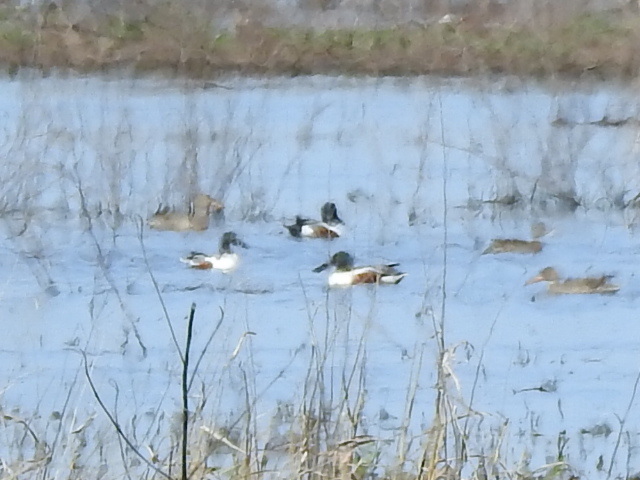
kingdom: Animalia
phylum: Chordata
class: Aves
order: Anseriformes
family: Anatidae
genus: Spatula
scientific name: Spatula clypeata
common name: Northern shoveler
